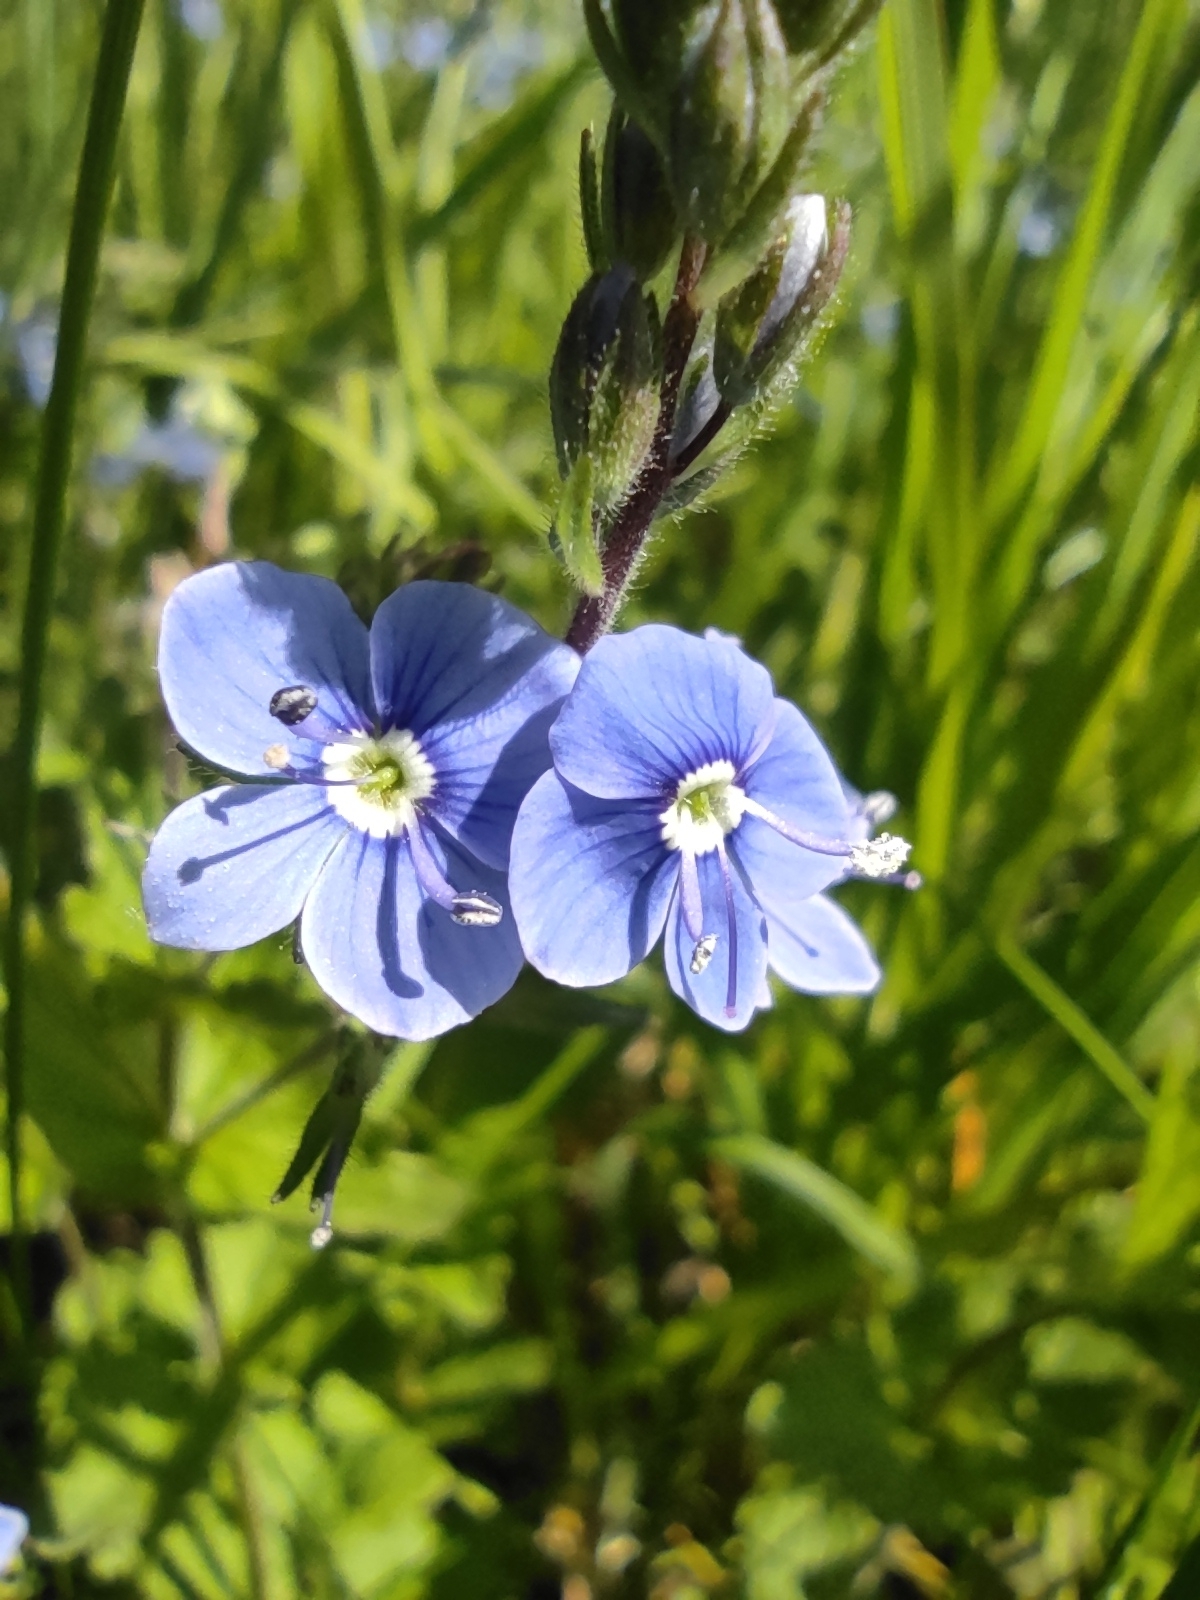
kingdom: Plantae
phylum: Tracheophyta
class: Magnoliopsida
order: Lamiales
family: Plantaginaceae
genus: Veronica
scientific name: Veronica chamaedrys
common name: Germander speedwell
